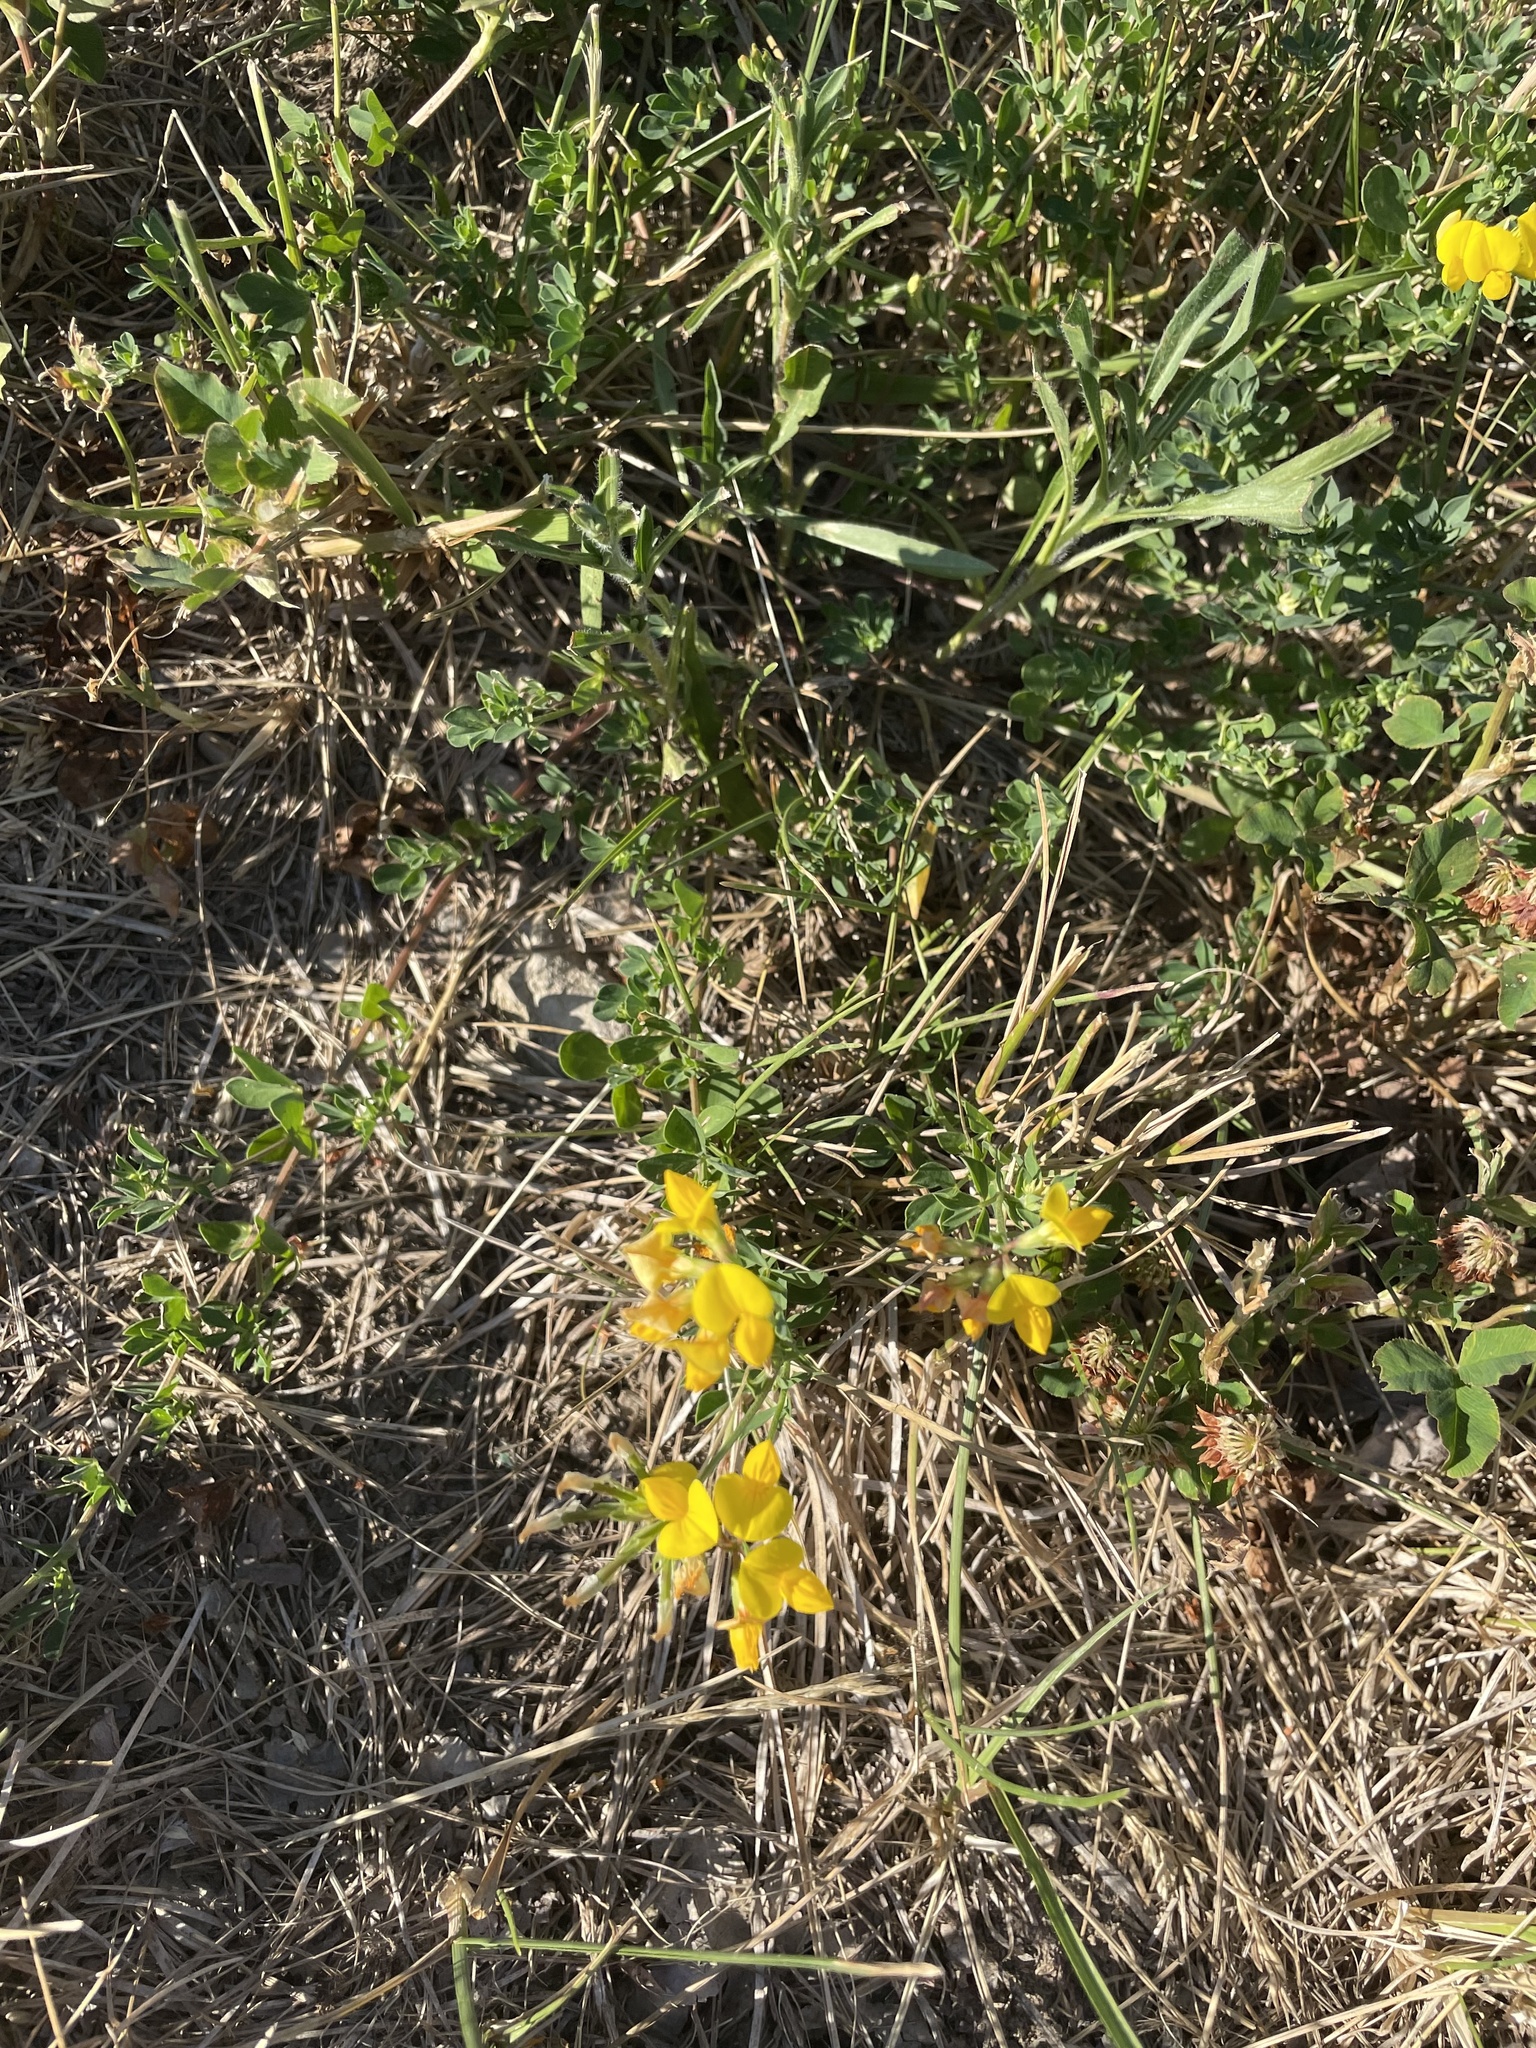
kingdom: Plantae
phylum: Tracheophyta
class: Magnoliopsida
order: Fabales
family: Fabaceae
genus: Lotus
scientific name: Lotus corniculatus
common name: Common bird's-foot-trefoil
